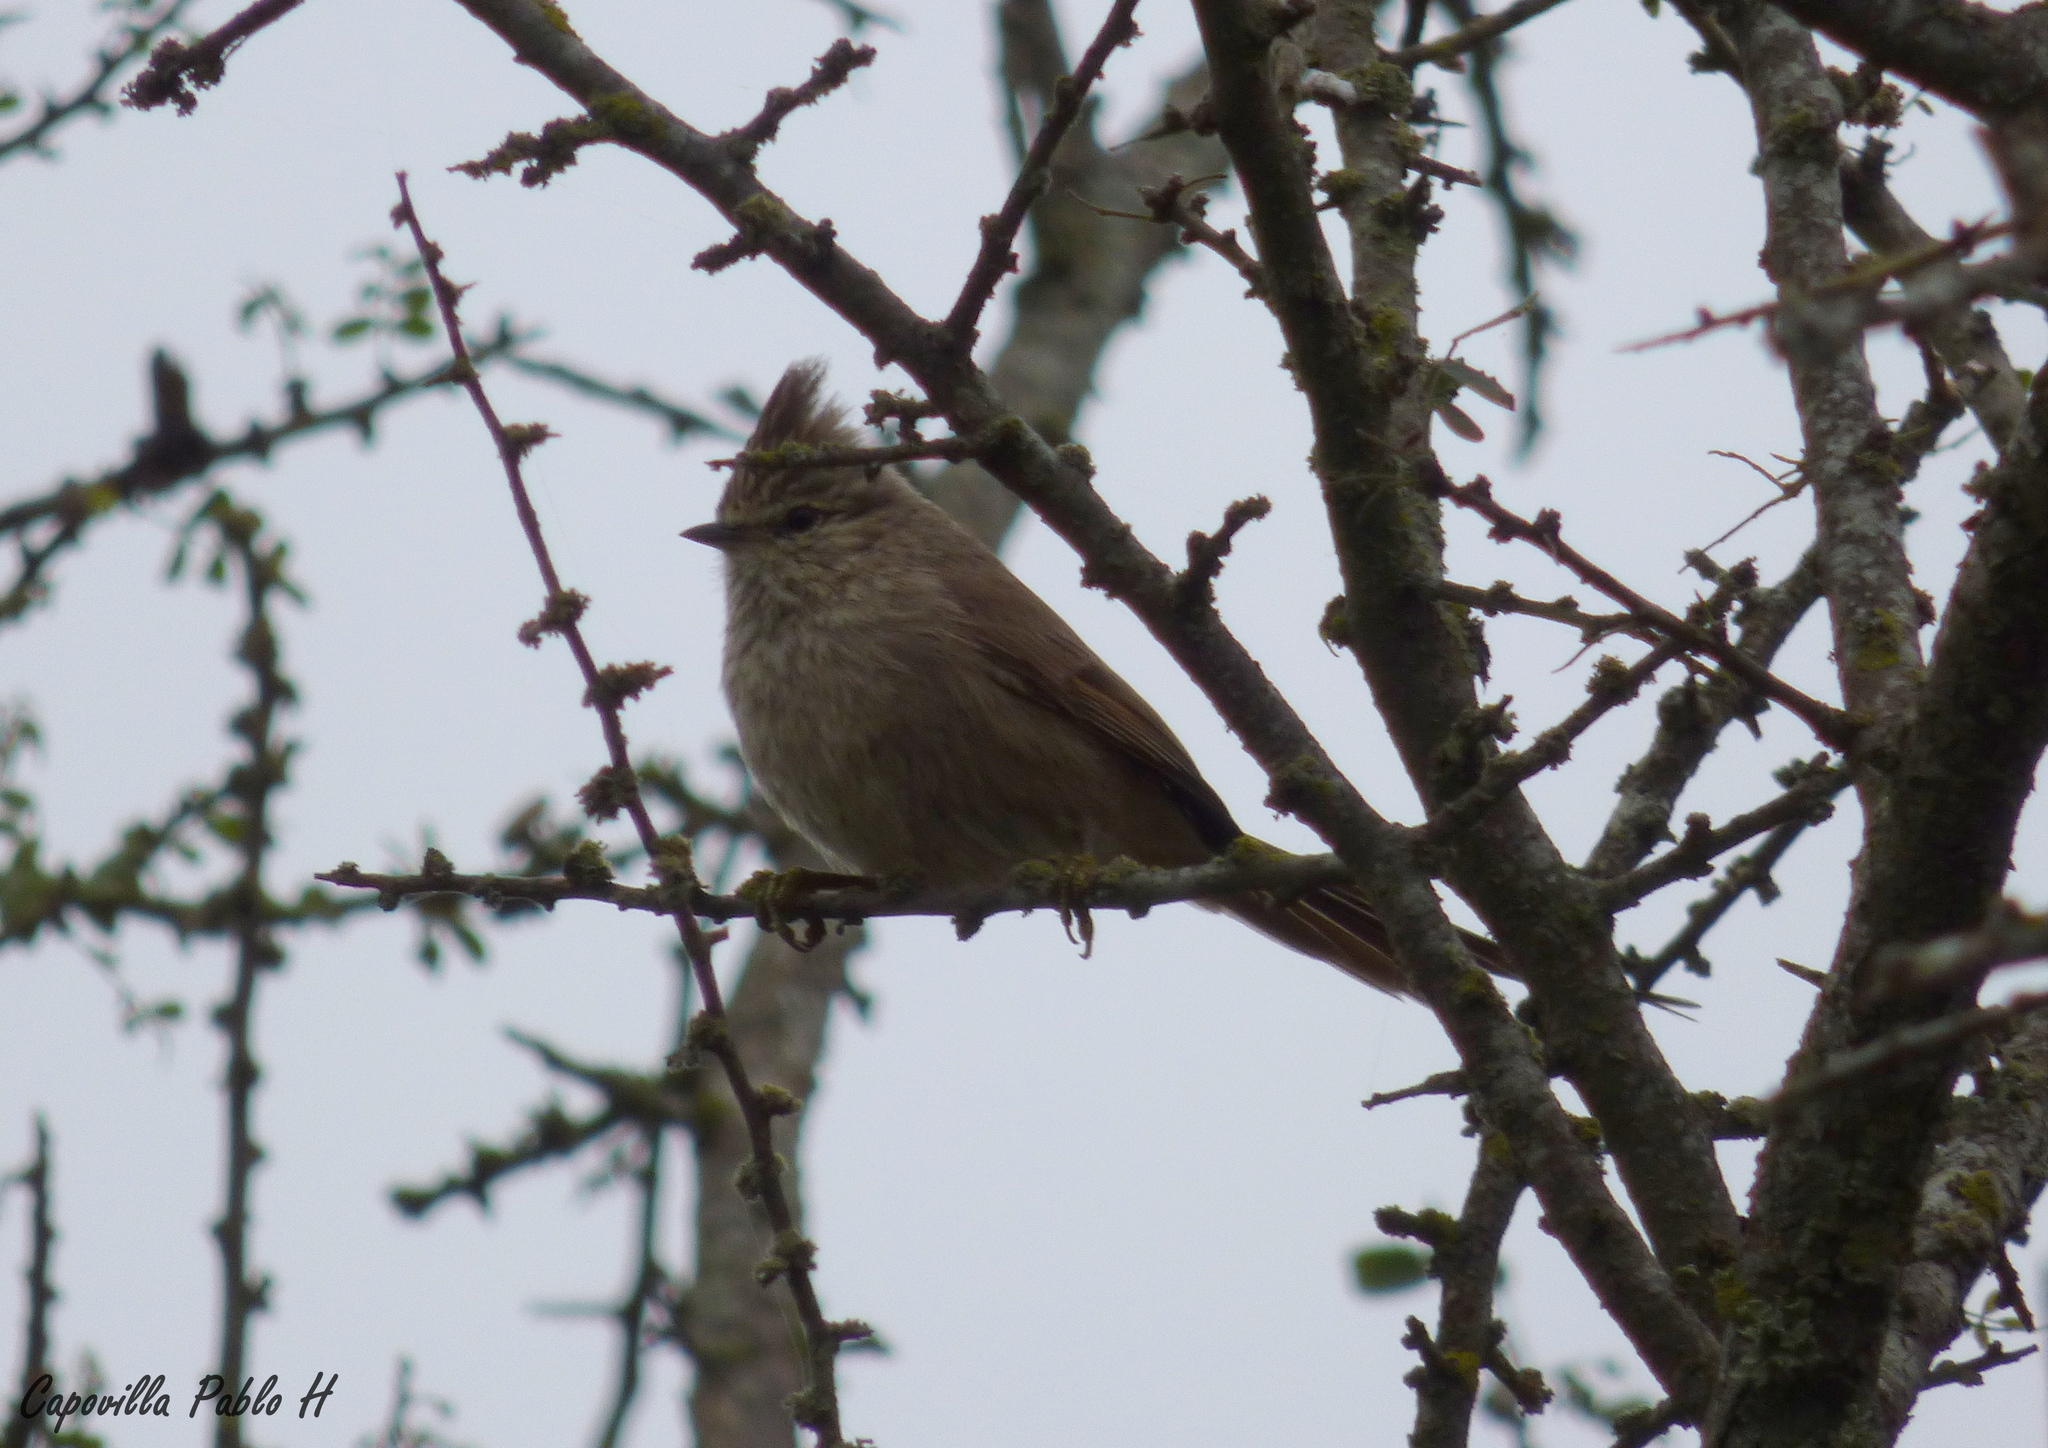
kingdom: Animalia
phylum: Chordata
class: Aves
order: Passeriformes
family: Furnariidae
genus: Leptasthenura
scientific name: Leptasthenura platensis
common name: Tufted tit-spinetail
